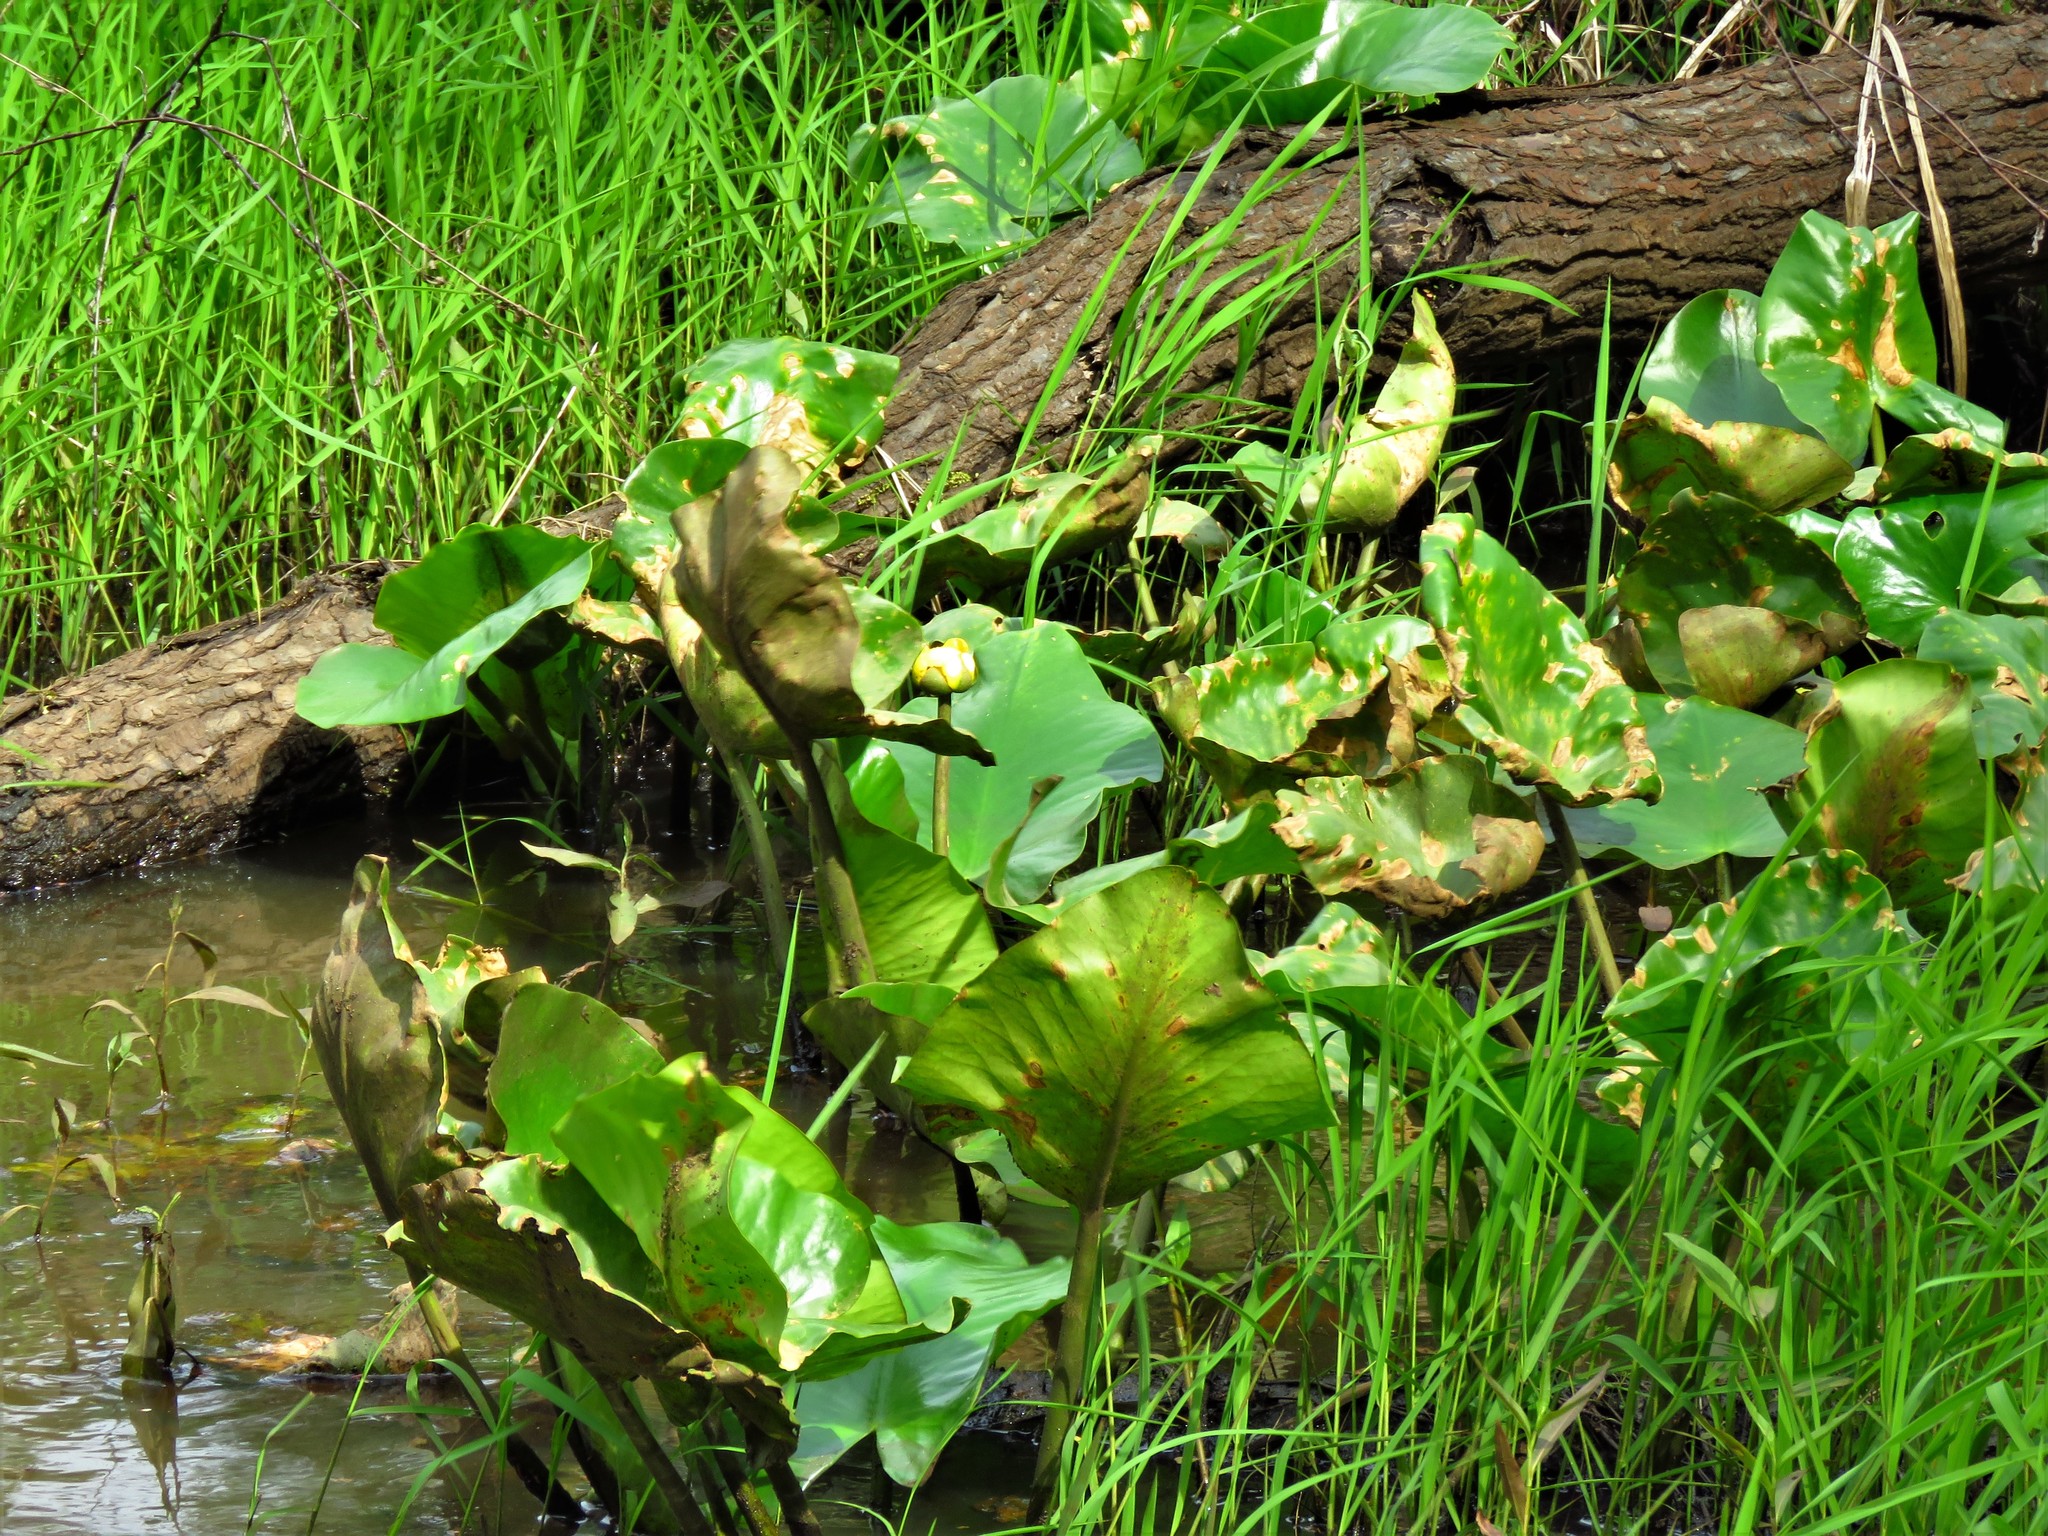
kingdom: Plantae
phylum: Tracheophyta
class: Magnoliopsida
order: Nymphaeales
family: Nymphaeaceae
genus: Nuphar
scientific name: Nuphar advena
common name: Spatter-dock
